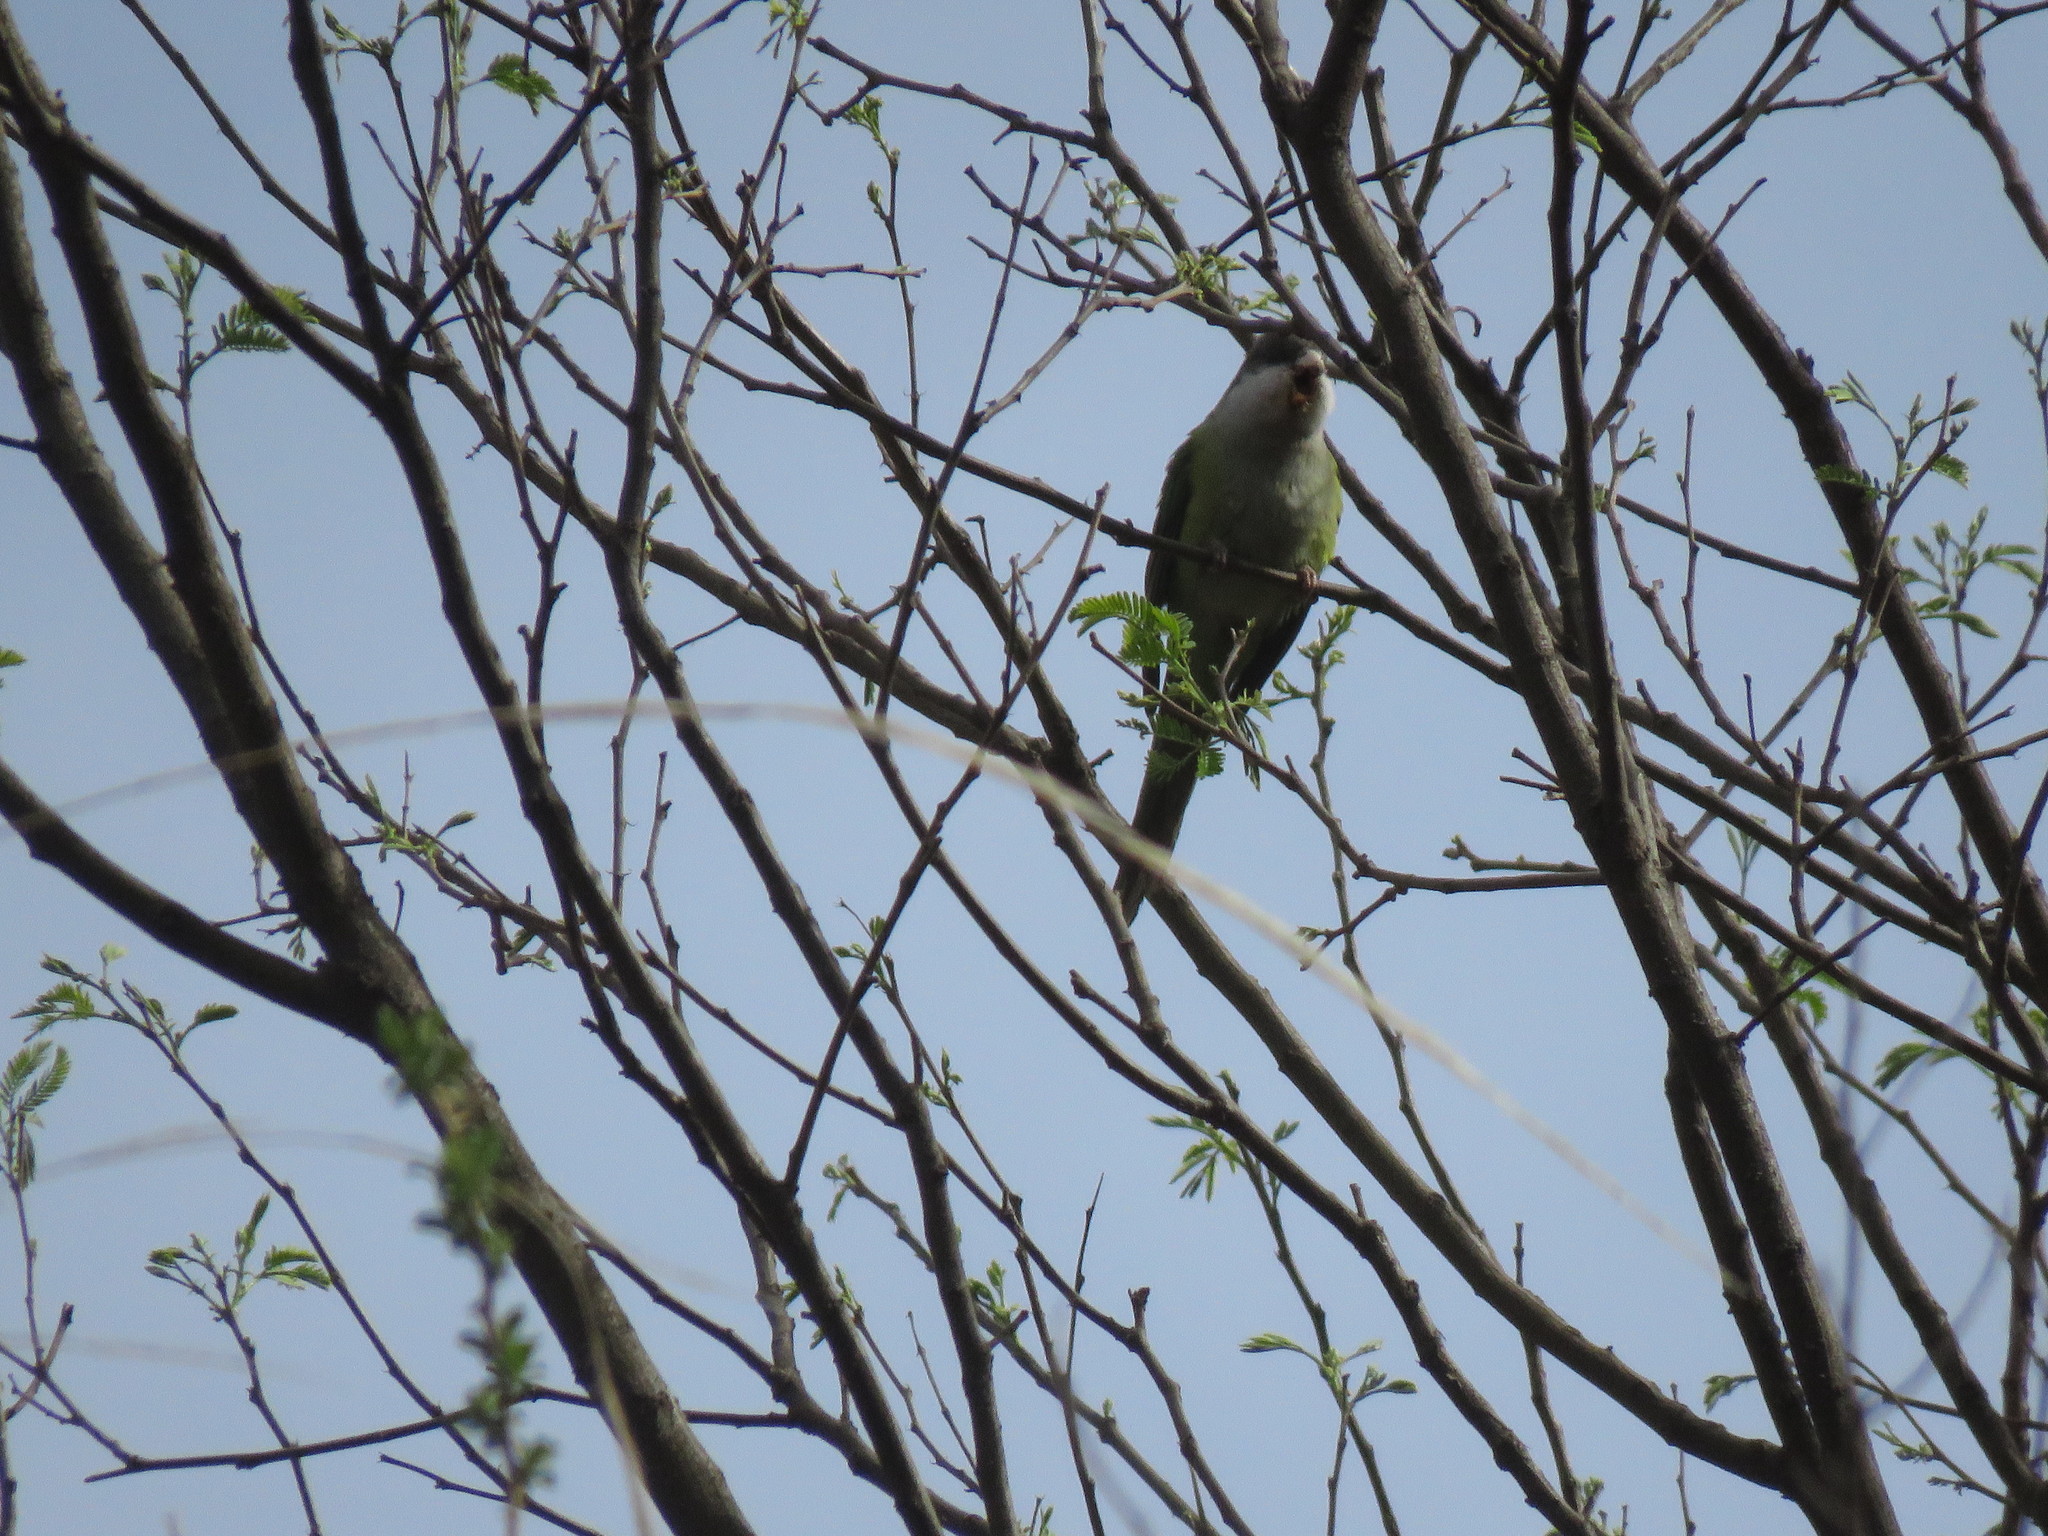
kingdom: Animalia
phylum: Chordata
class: Aves
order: Psittaciformes
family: Psittacidae
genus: Psilopsiagon
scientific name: Psilopsiagon aymara
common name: Grey-hooded parakeet
